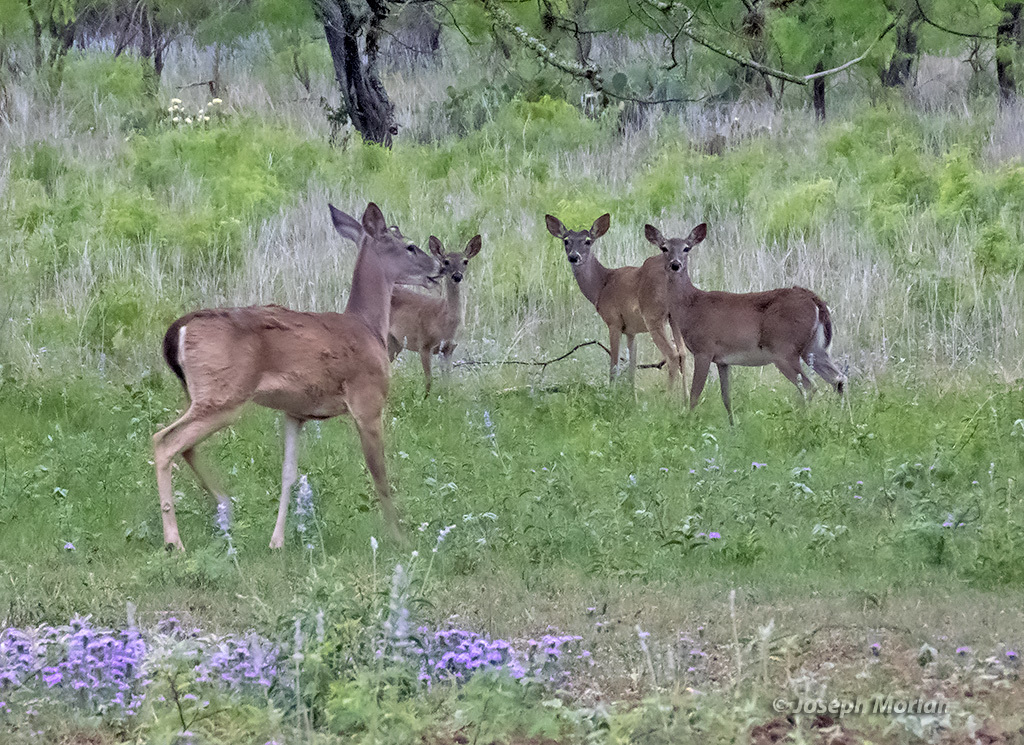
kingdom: Animalia
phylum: Chordata
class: Mammalia
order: Artiodactyla
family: Cervidae
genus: Odocoileus
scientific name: Odocoileus virginianus
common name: White-tailed deer
